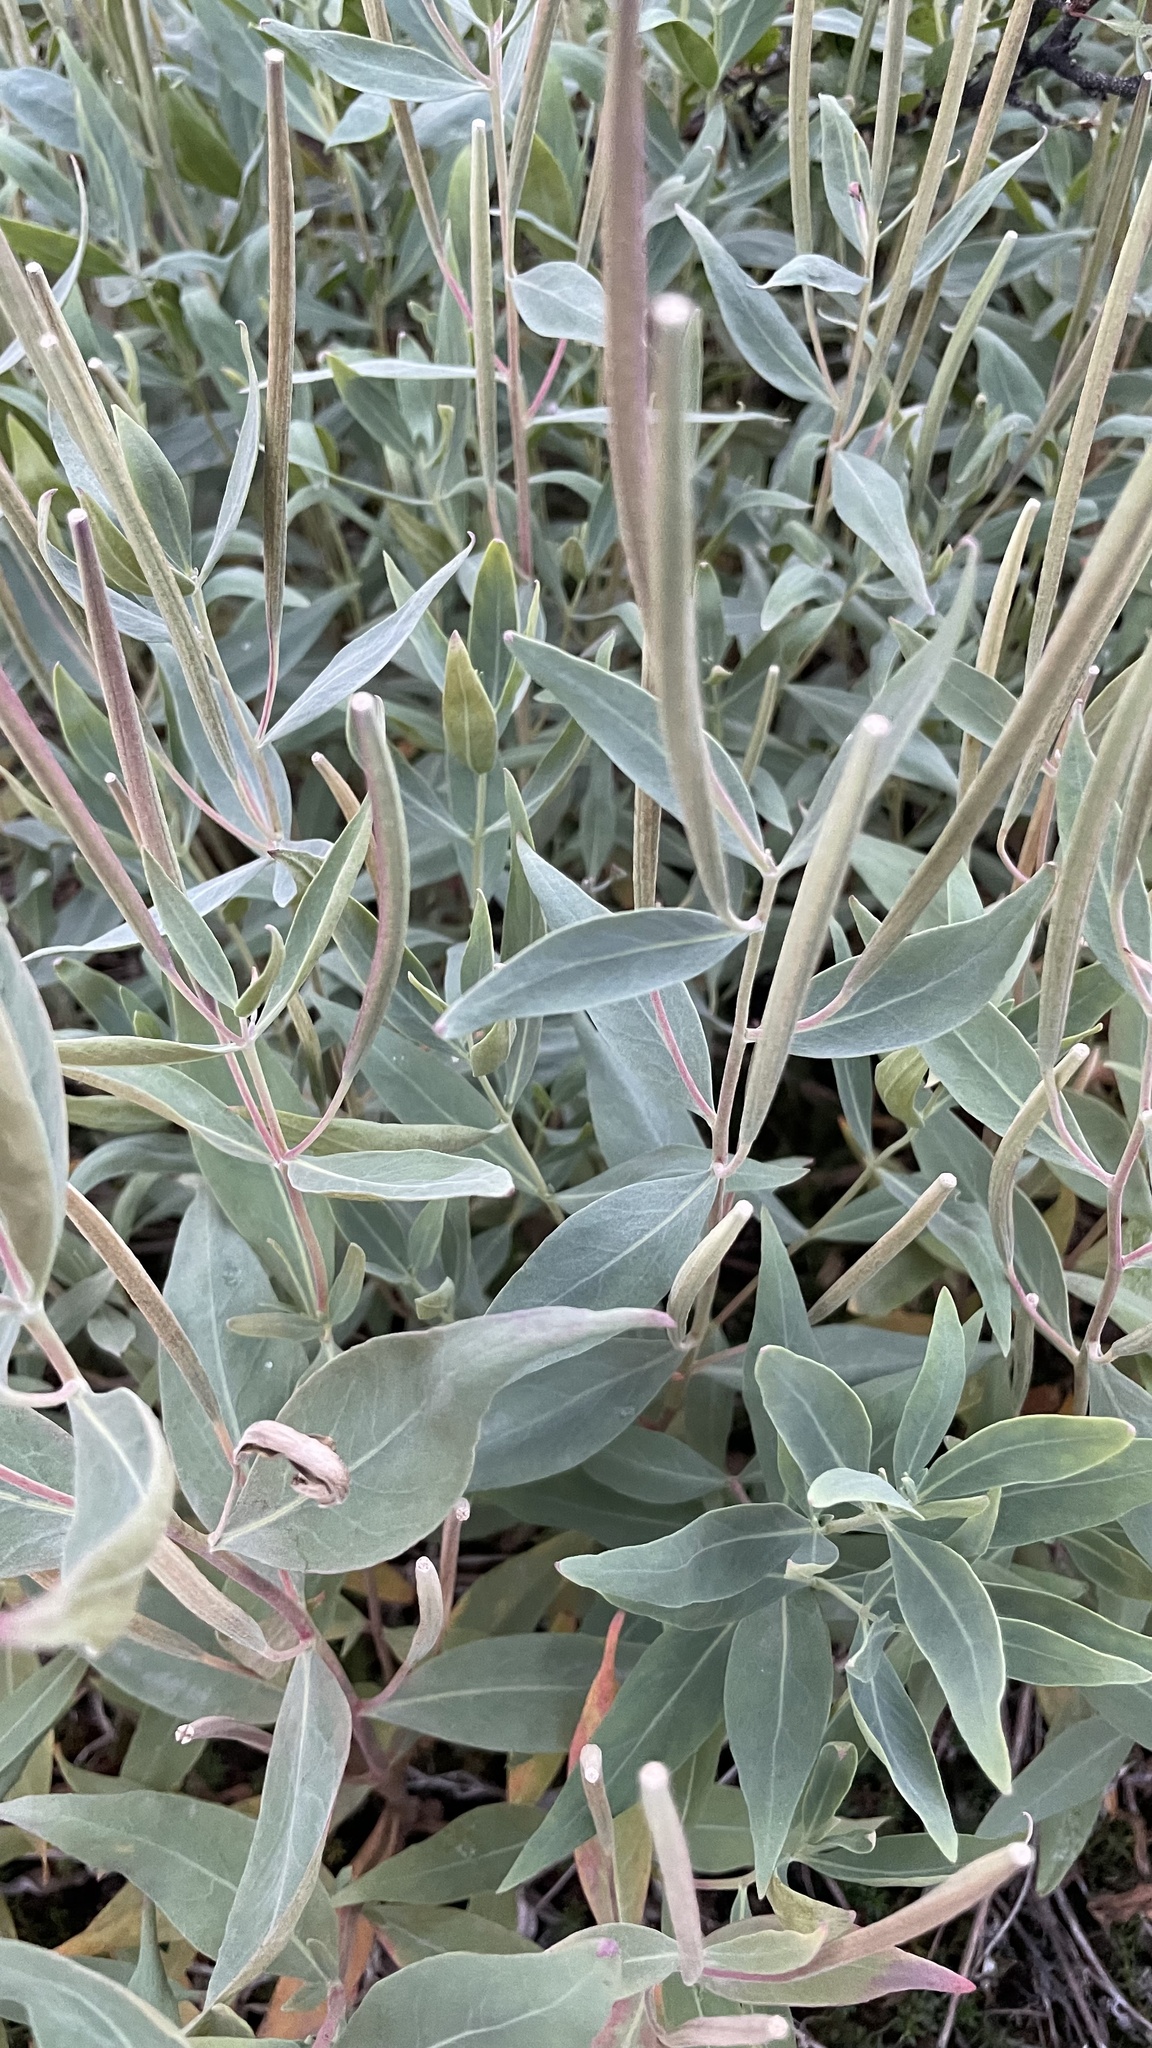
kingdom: Plantae
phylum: Tracheophyta
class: Magnoliopsida
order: Myrtales
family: Onagraceae
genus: Chamaenerion
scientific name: Chamaenerion latifolium
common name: Dwarf fireweed
